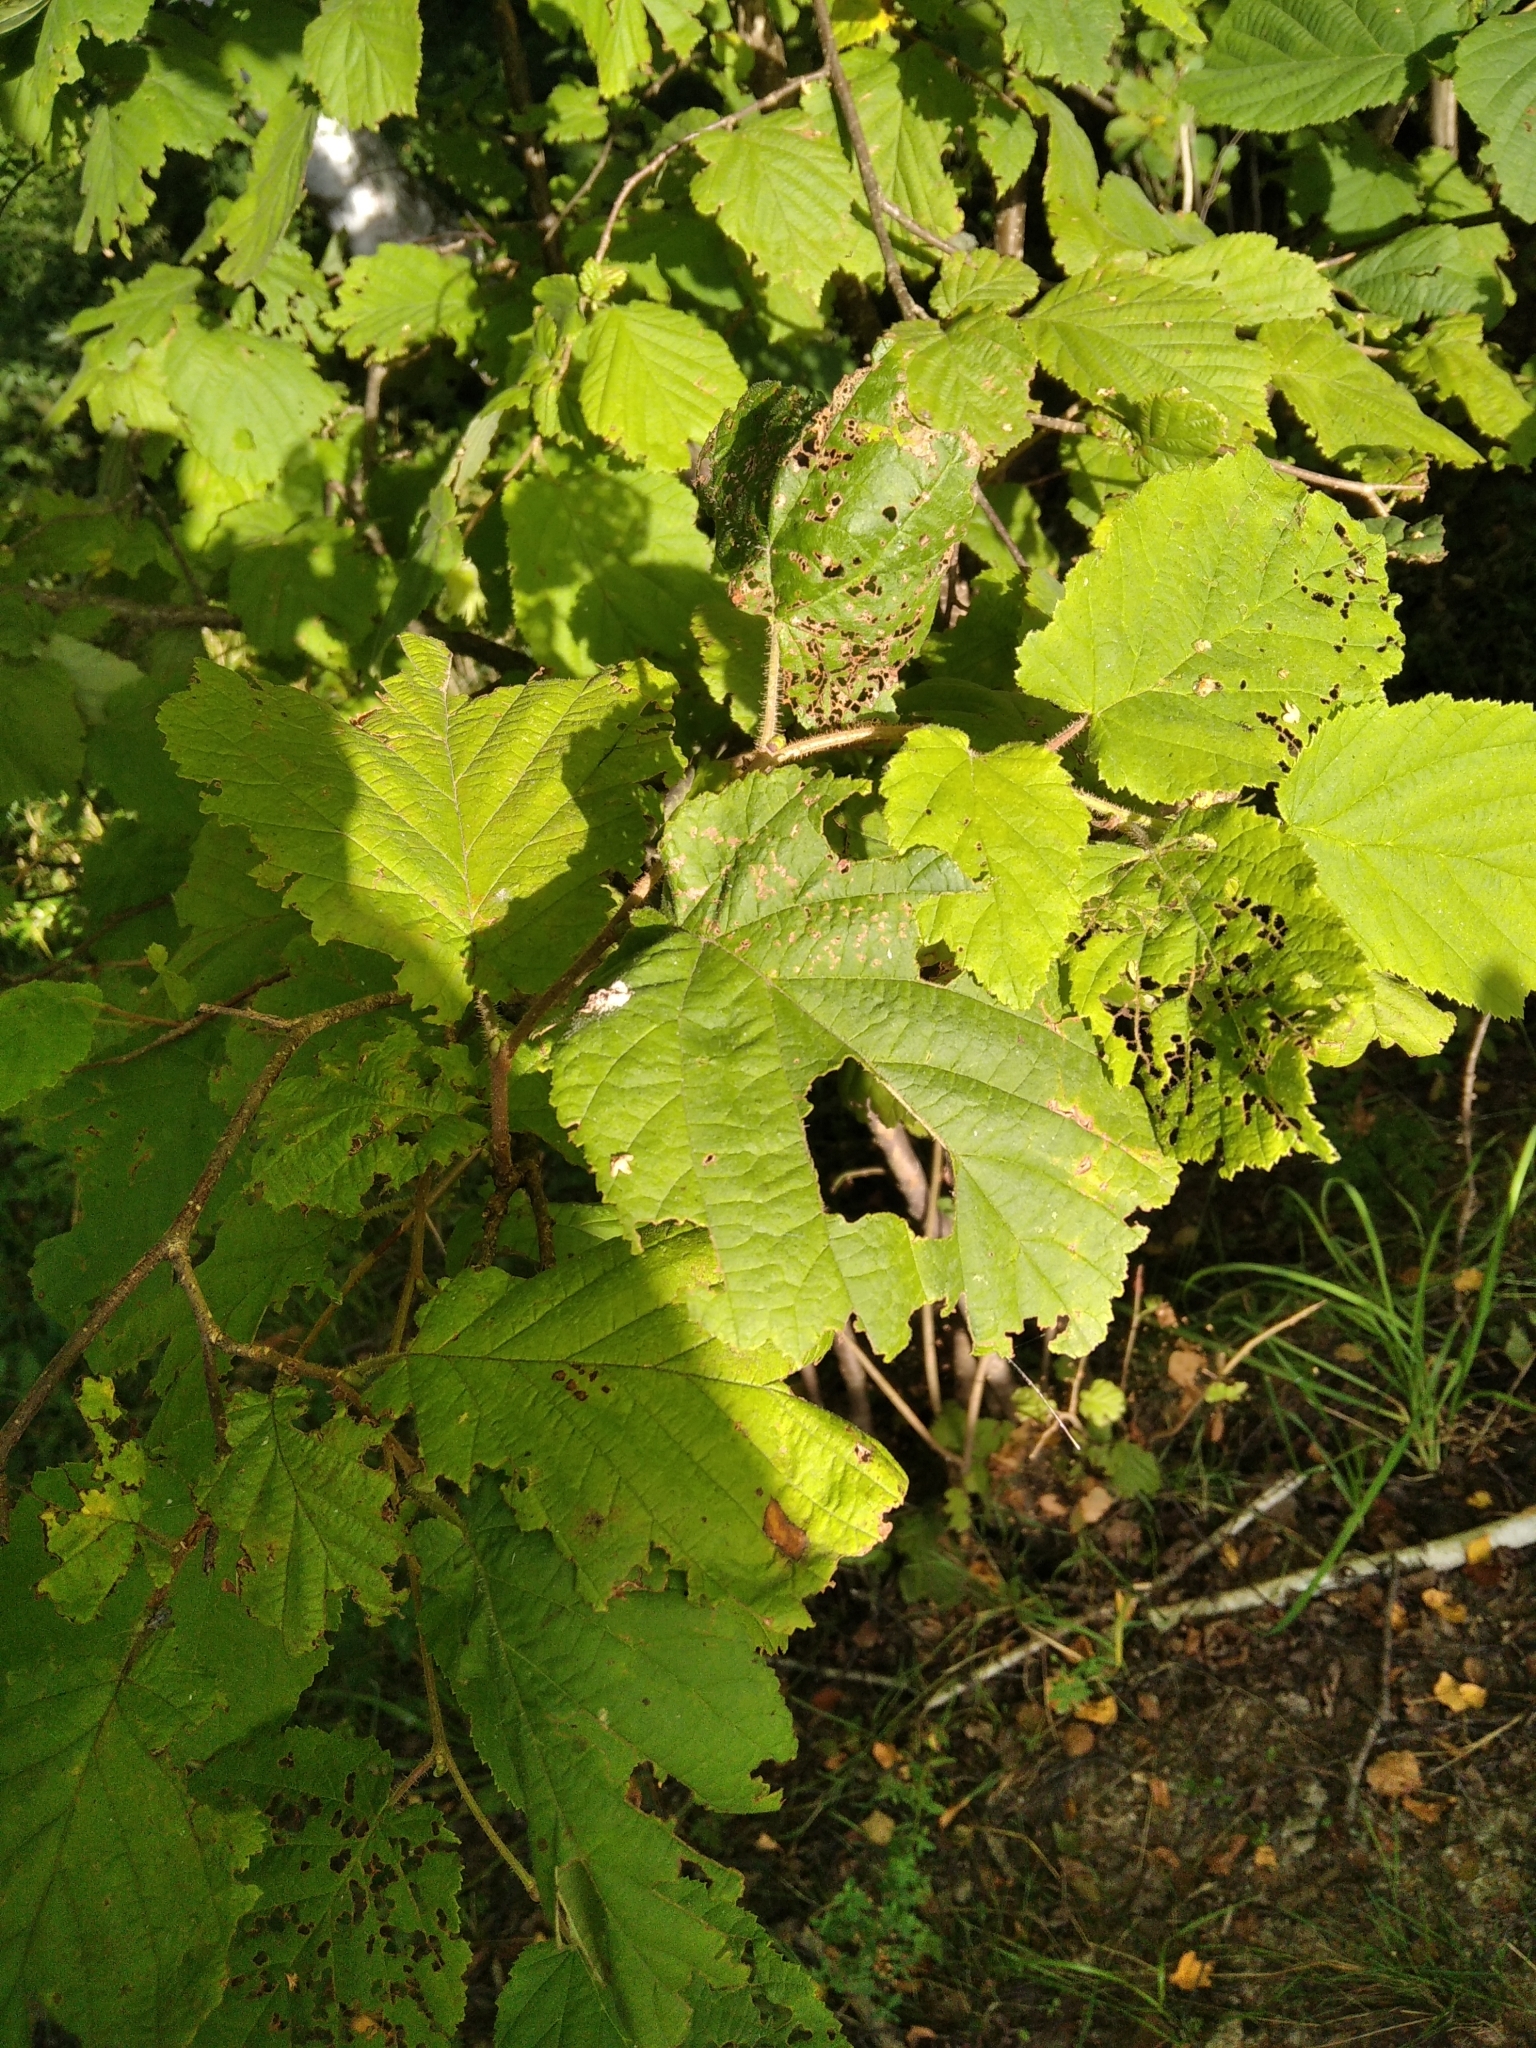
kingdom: Plantae
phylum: Tracheophyta
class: Magnoliopsida
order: Fagales
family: Betulaceae
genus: Corylus
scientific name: Corylus avellana
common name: European hazel
